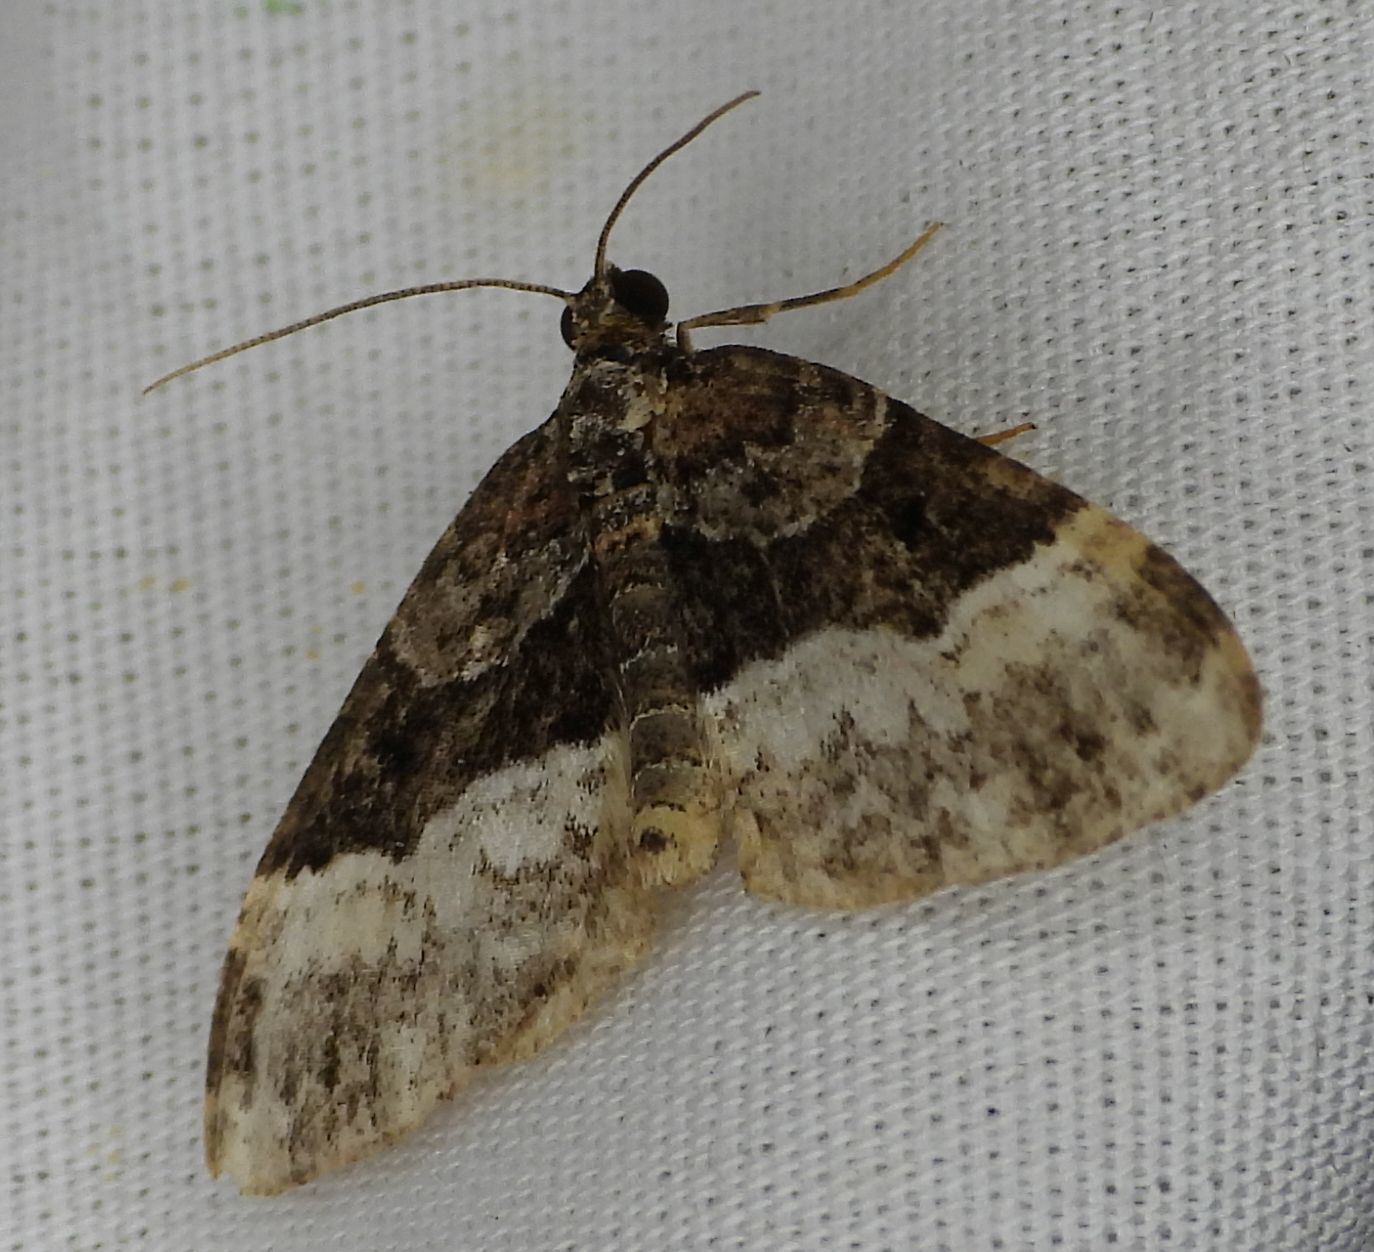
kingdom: Animalia
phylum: Arthropoda
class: Insecta
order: Lepidoptera
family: Geometridae
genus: Euphyia
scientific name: Euphyia intermediata
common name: Sharp-angled carpet
